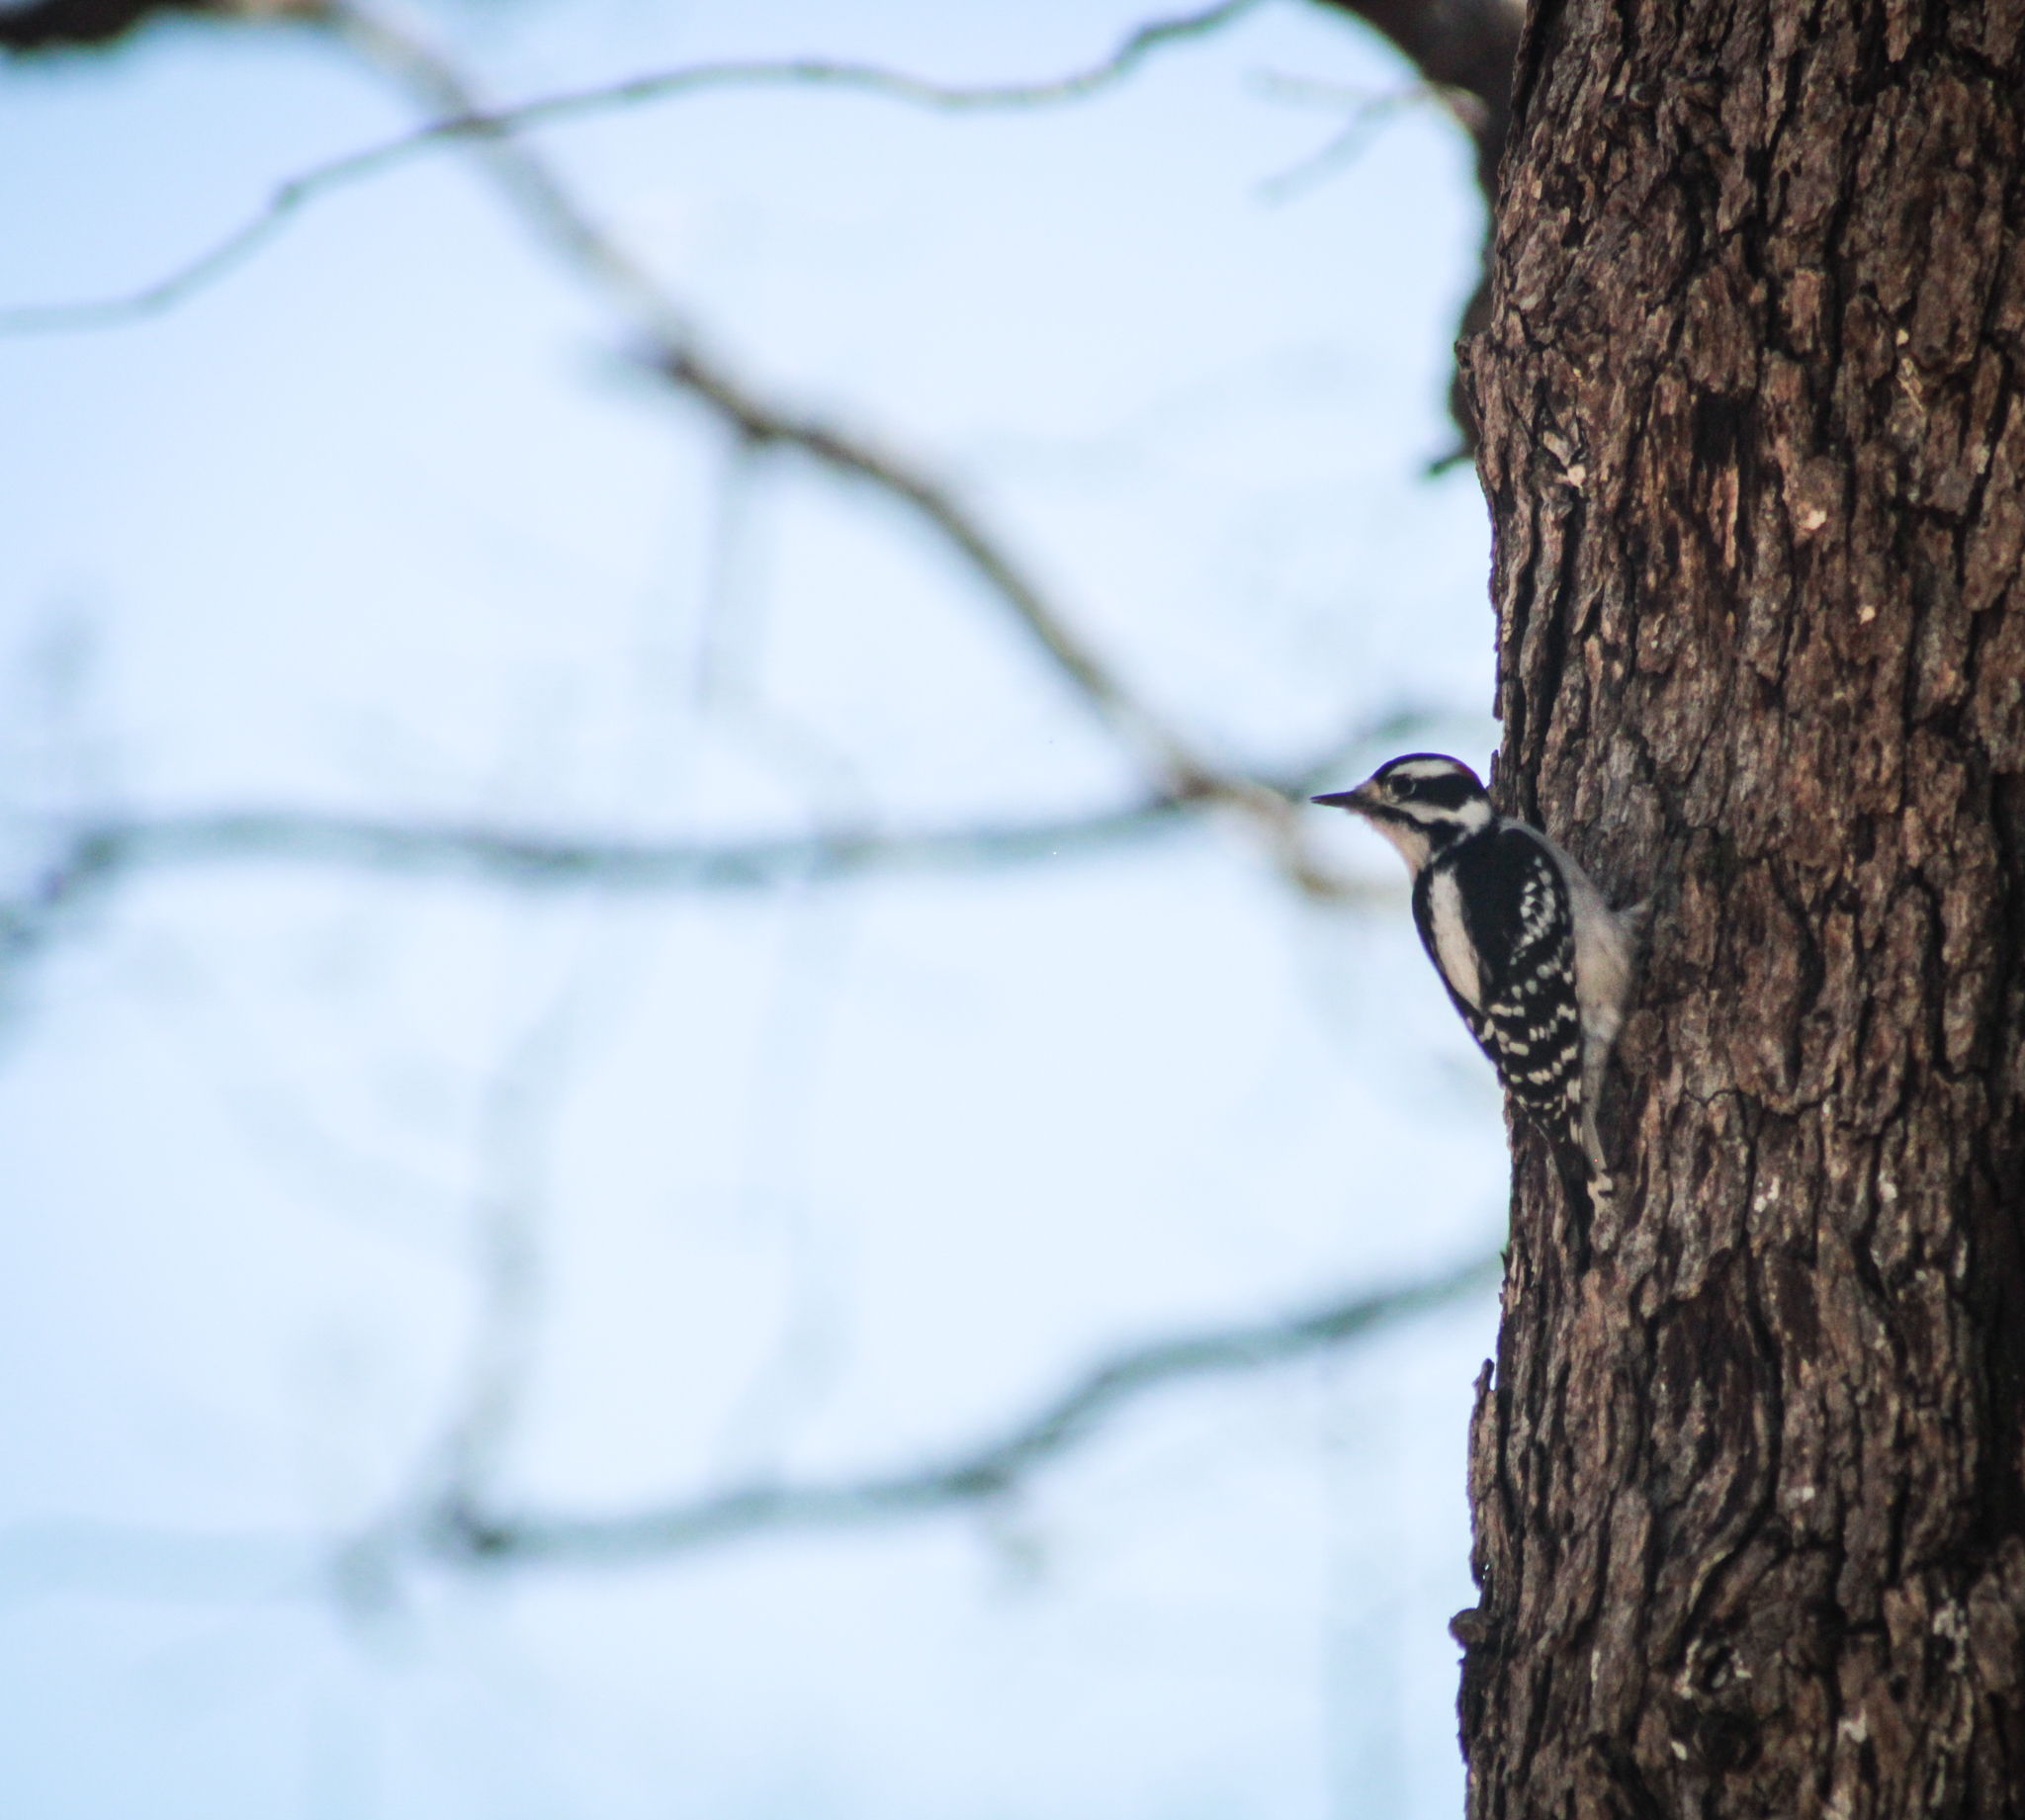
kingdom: Animalia
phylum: Chordata
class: Aves
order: Piciformes
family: Picidae
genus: Dryobates
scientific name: Dryobates pubescens
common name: Downy woodpecker
